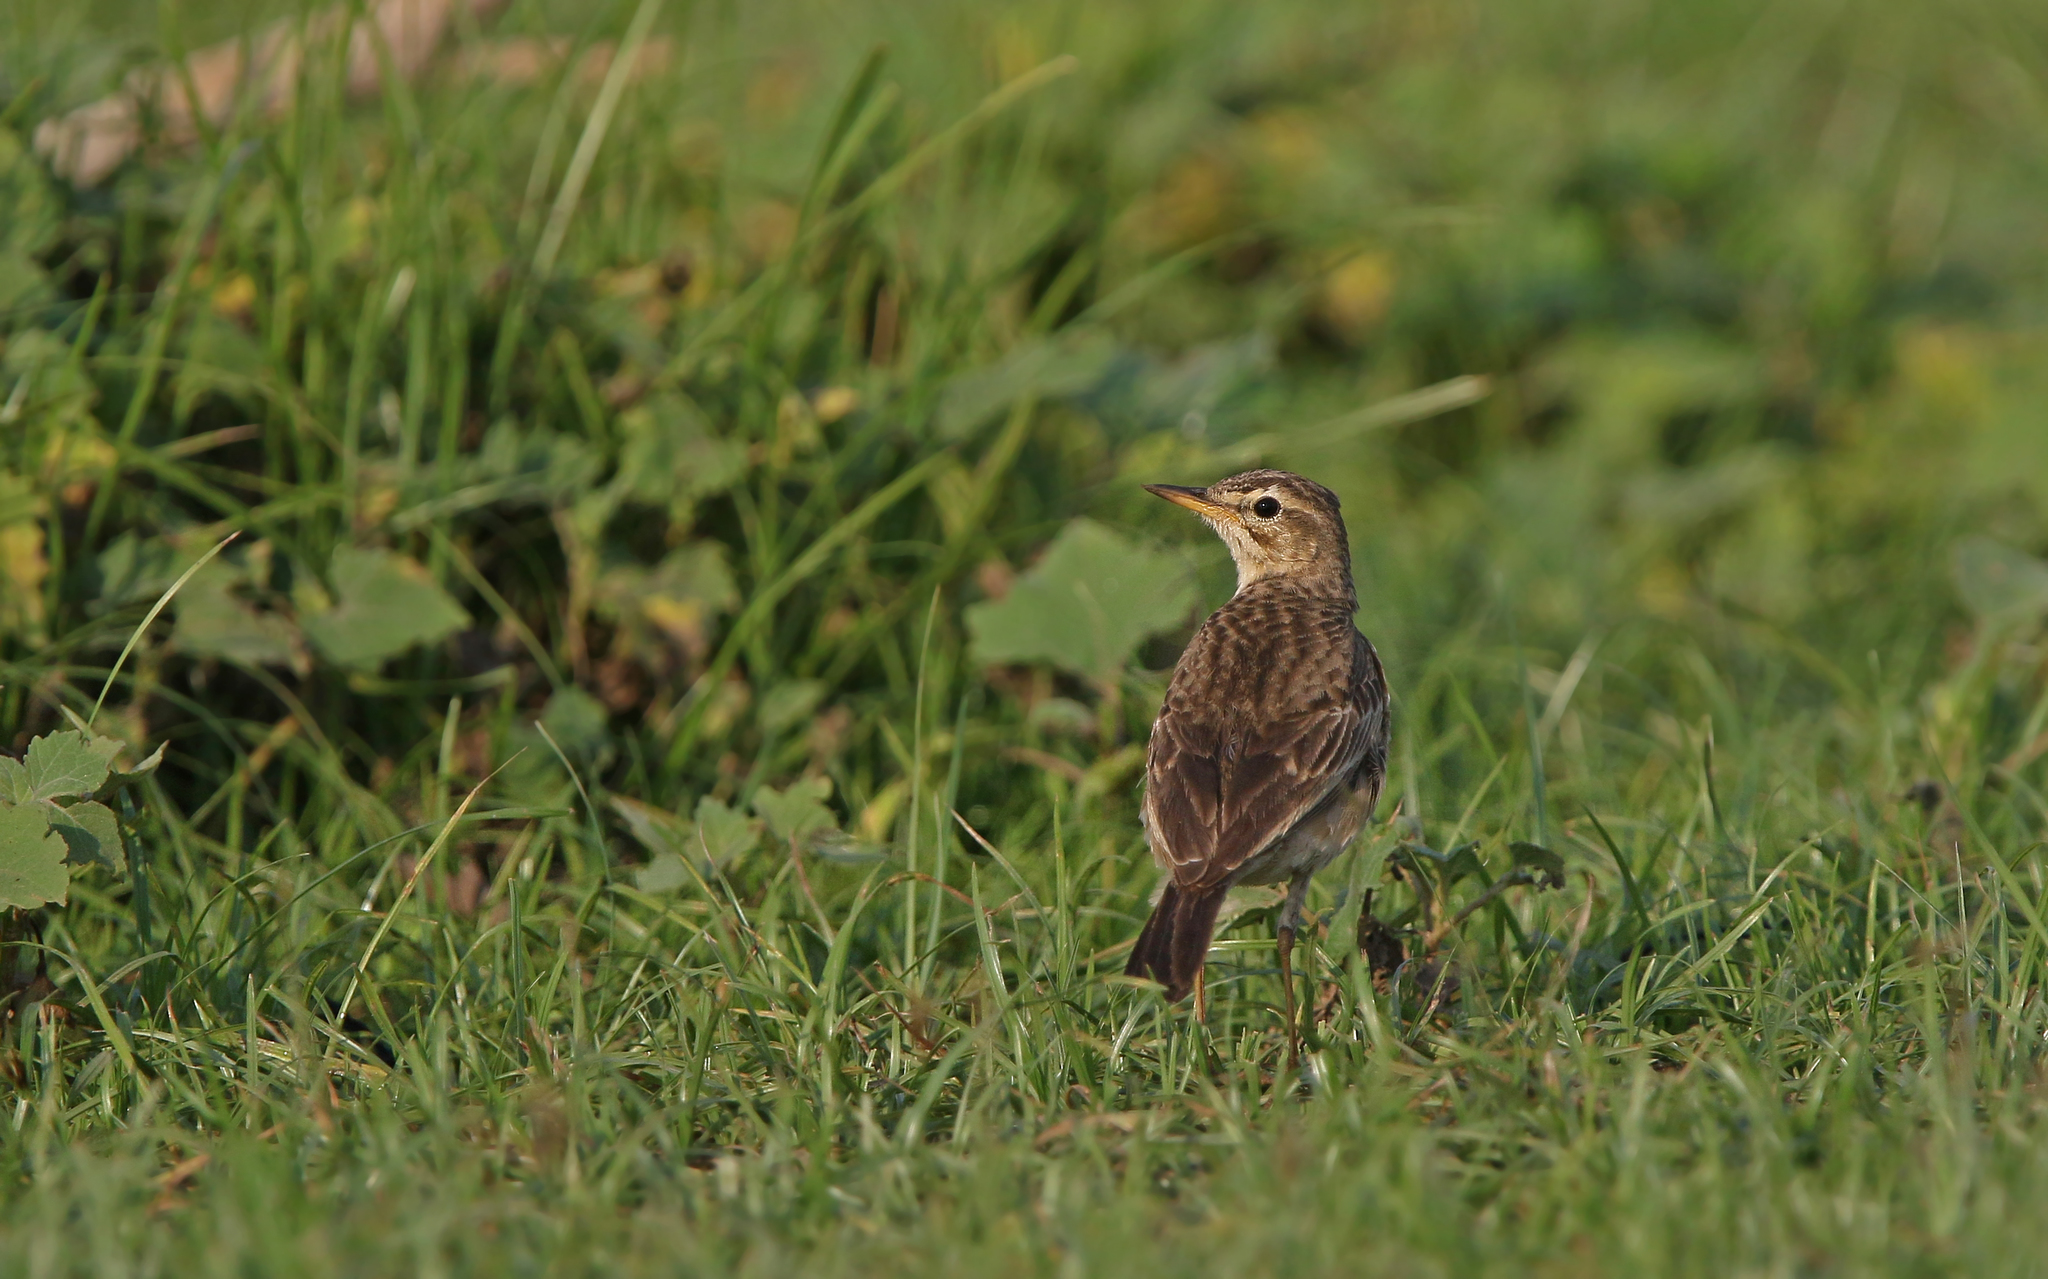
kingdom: Animalia
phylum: Chordata
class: Aves
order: Passeriformes
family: Motacillidae
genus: Anthus
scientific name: Anthus rufulus
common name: Paddyfield pipit
